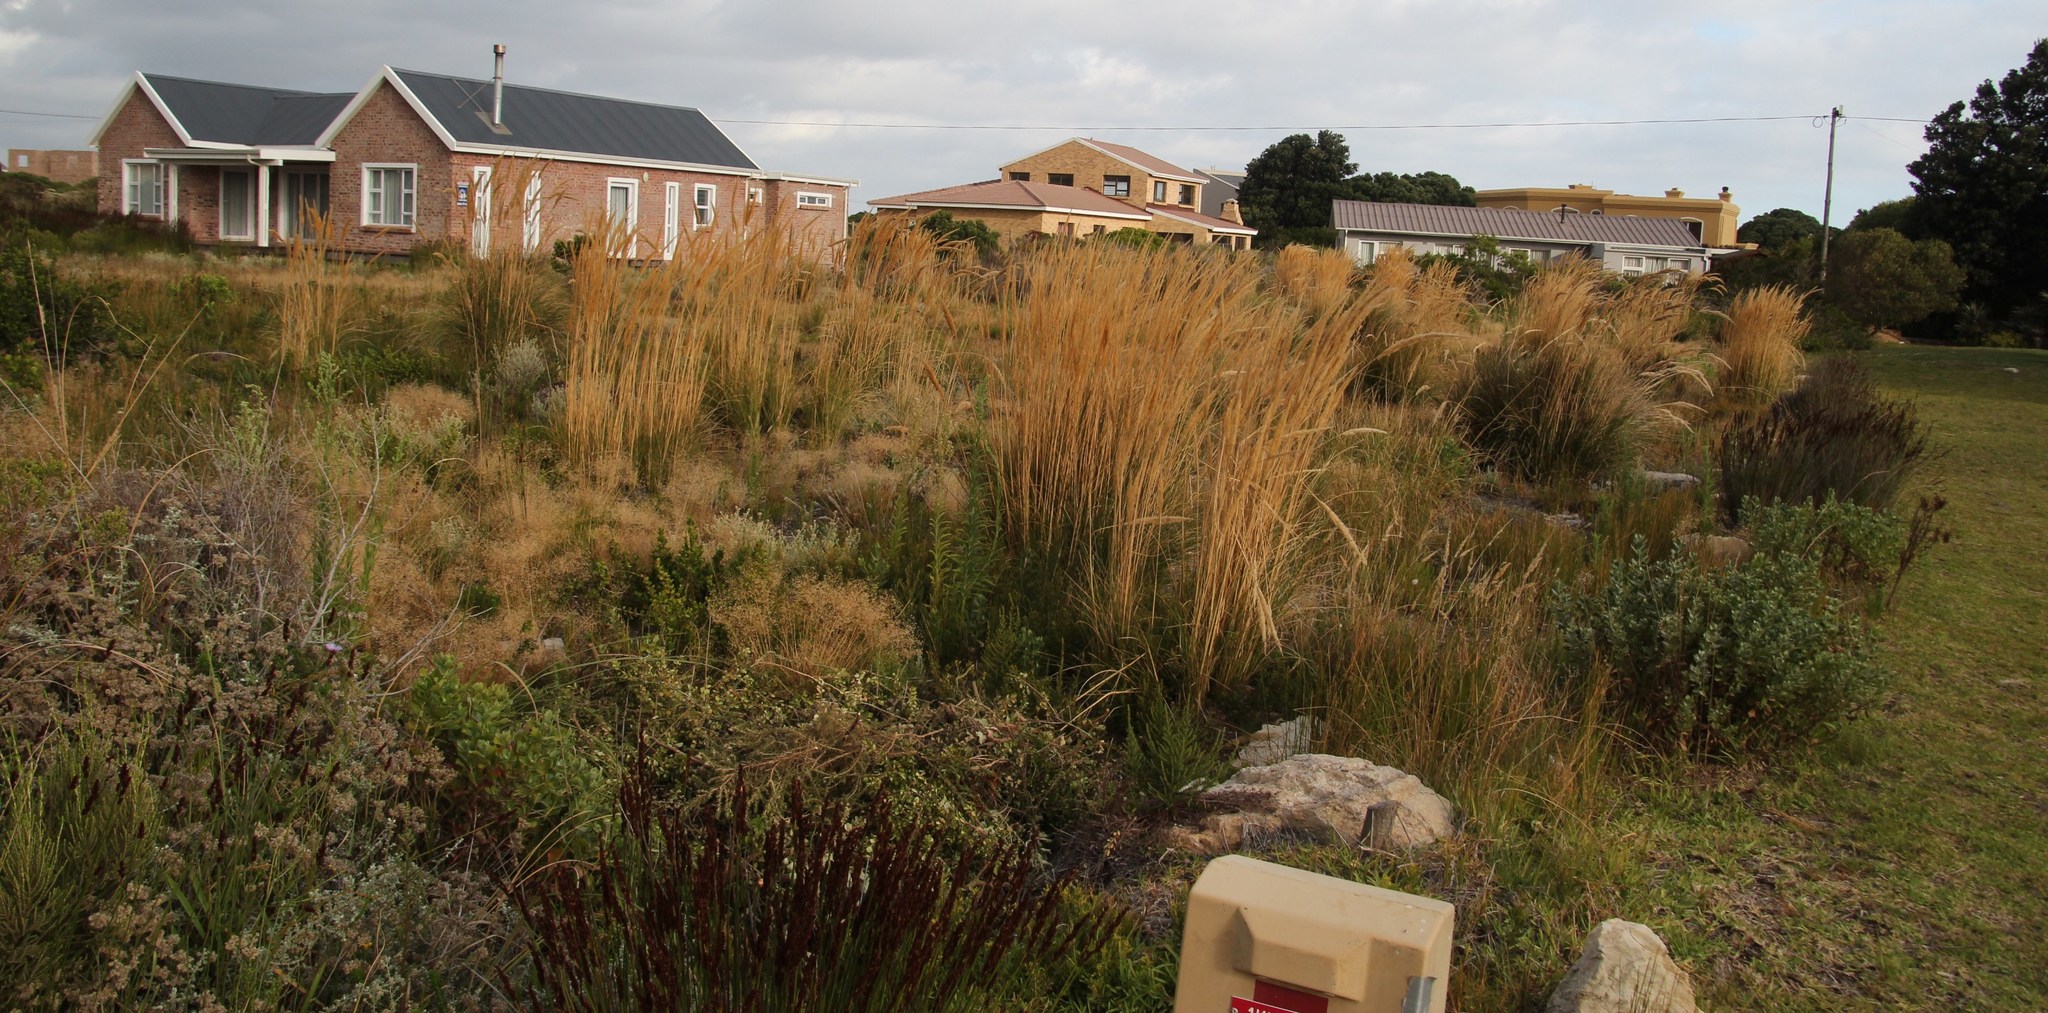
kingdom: Plantae
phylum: Tracheophyta
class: Liliopsida
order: Poales
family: Poaceae
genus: Capeochloa
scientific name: Capeochloa cincta
